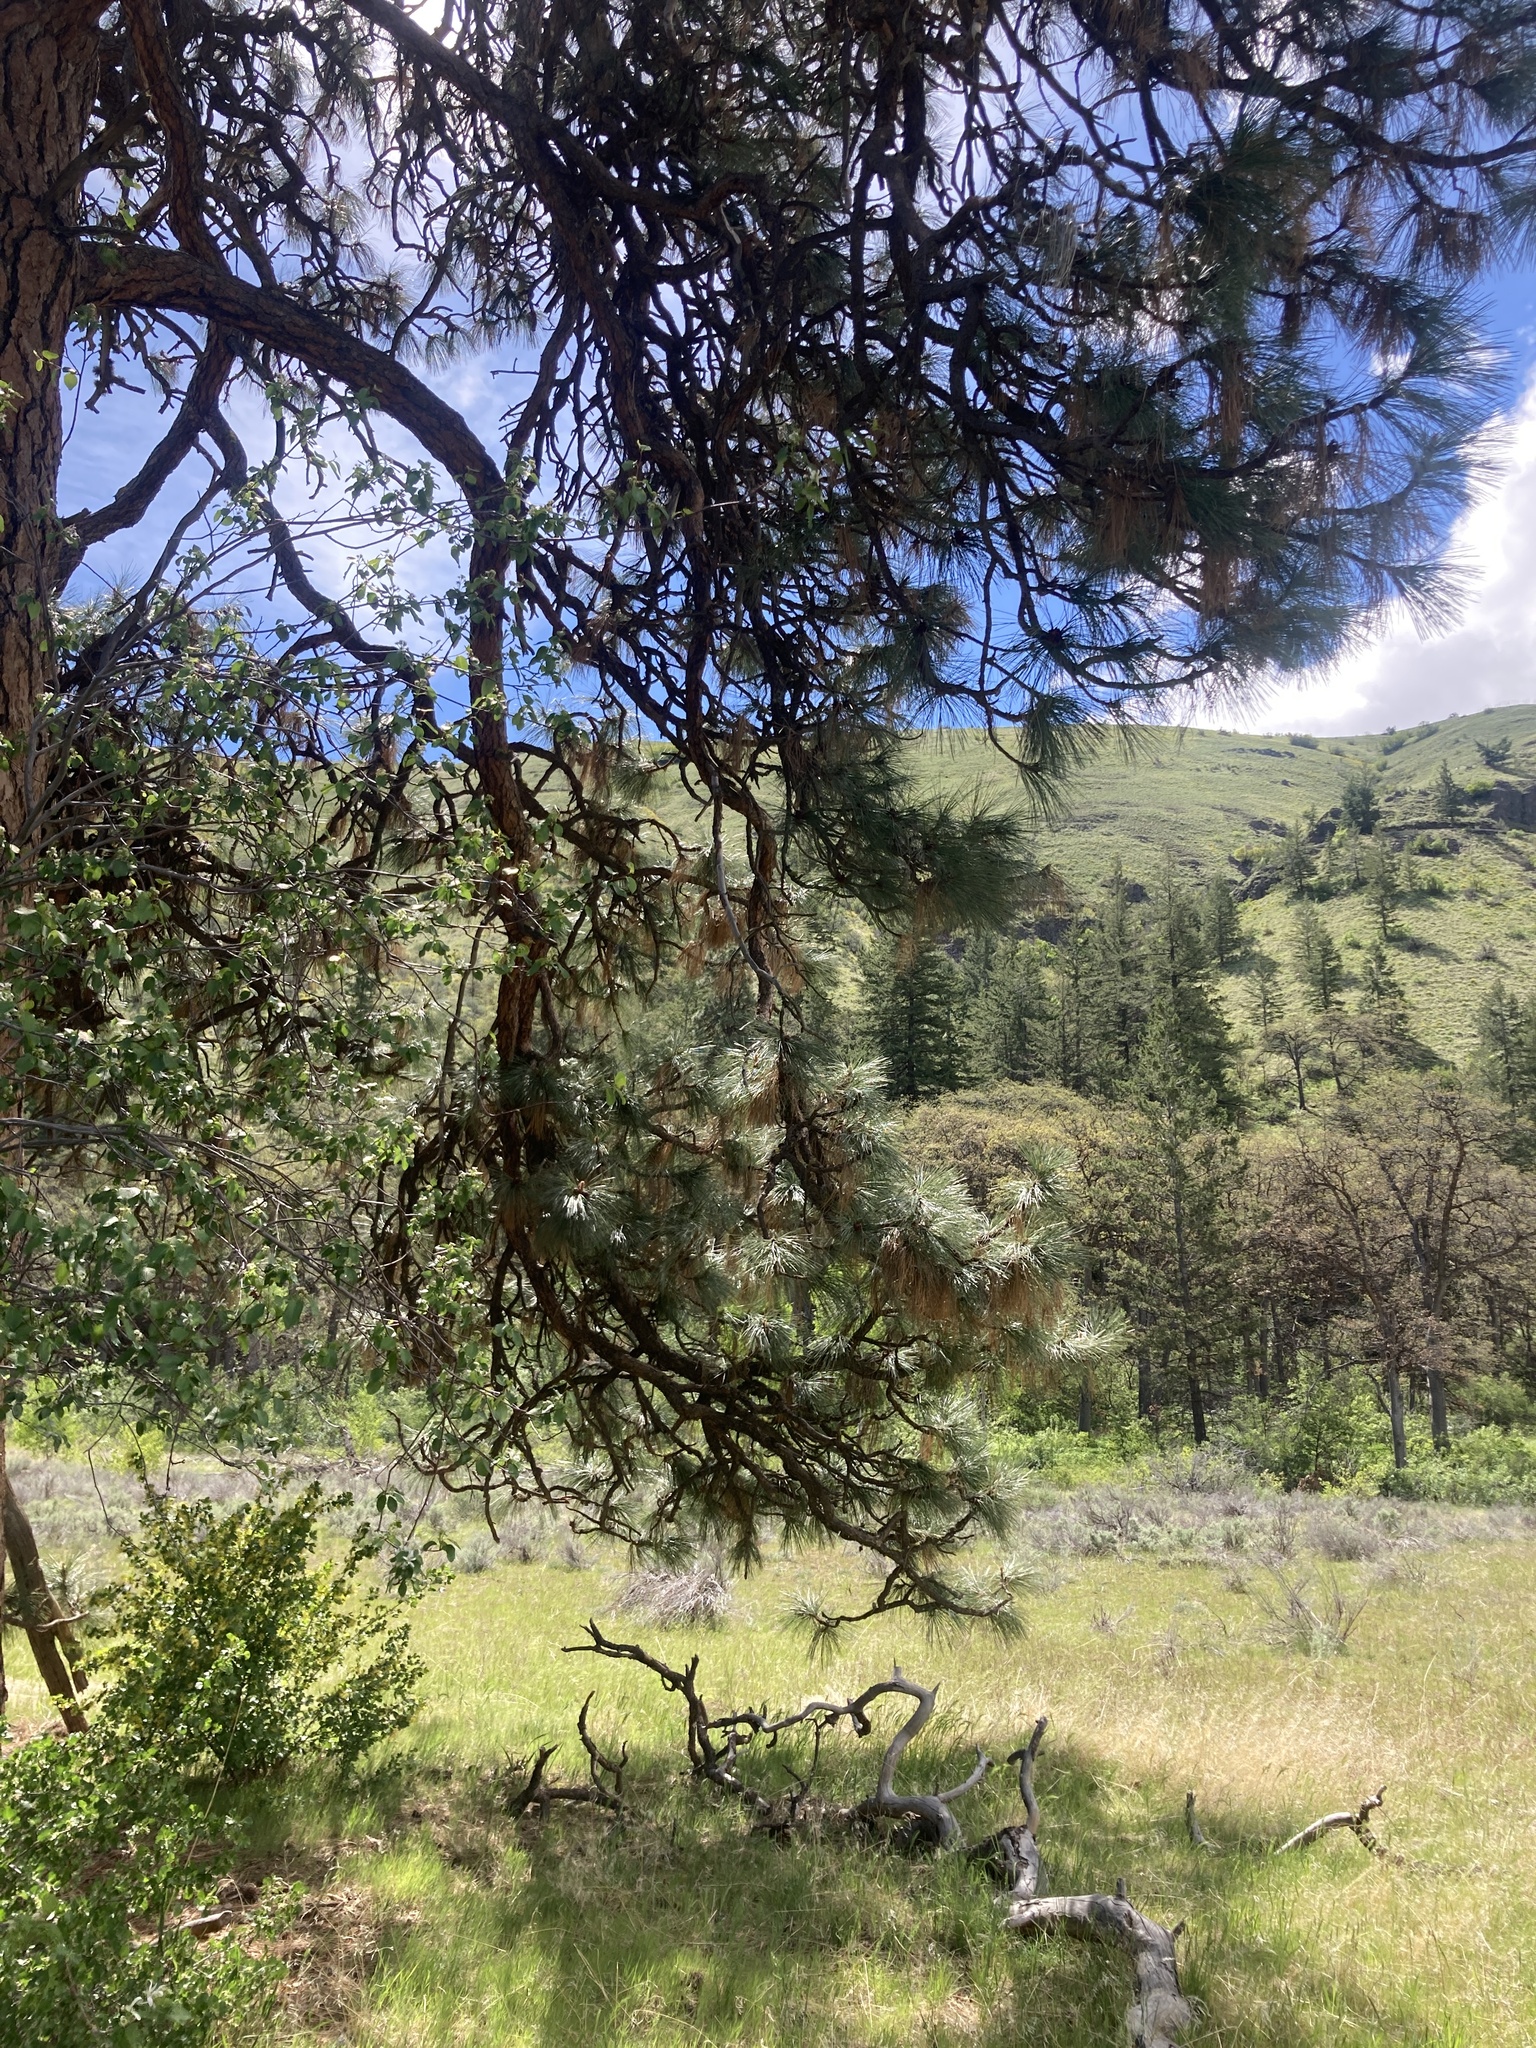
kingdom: Plantae
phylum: Tracheophyta
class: Pinopsida
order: Pinales
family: Pinaceae
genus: Pinus
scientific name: Pinus ponderosa
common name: Western yellow-pine
